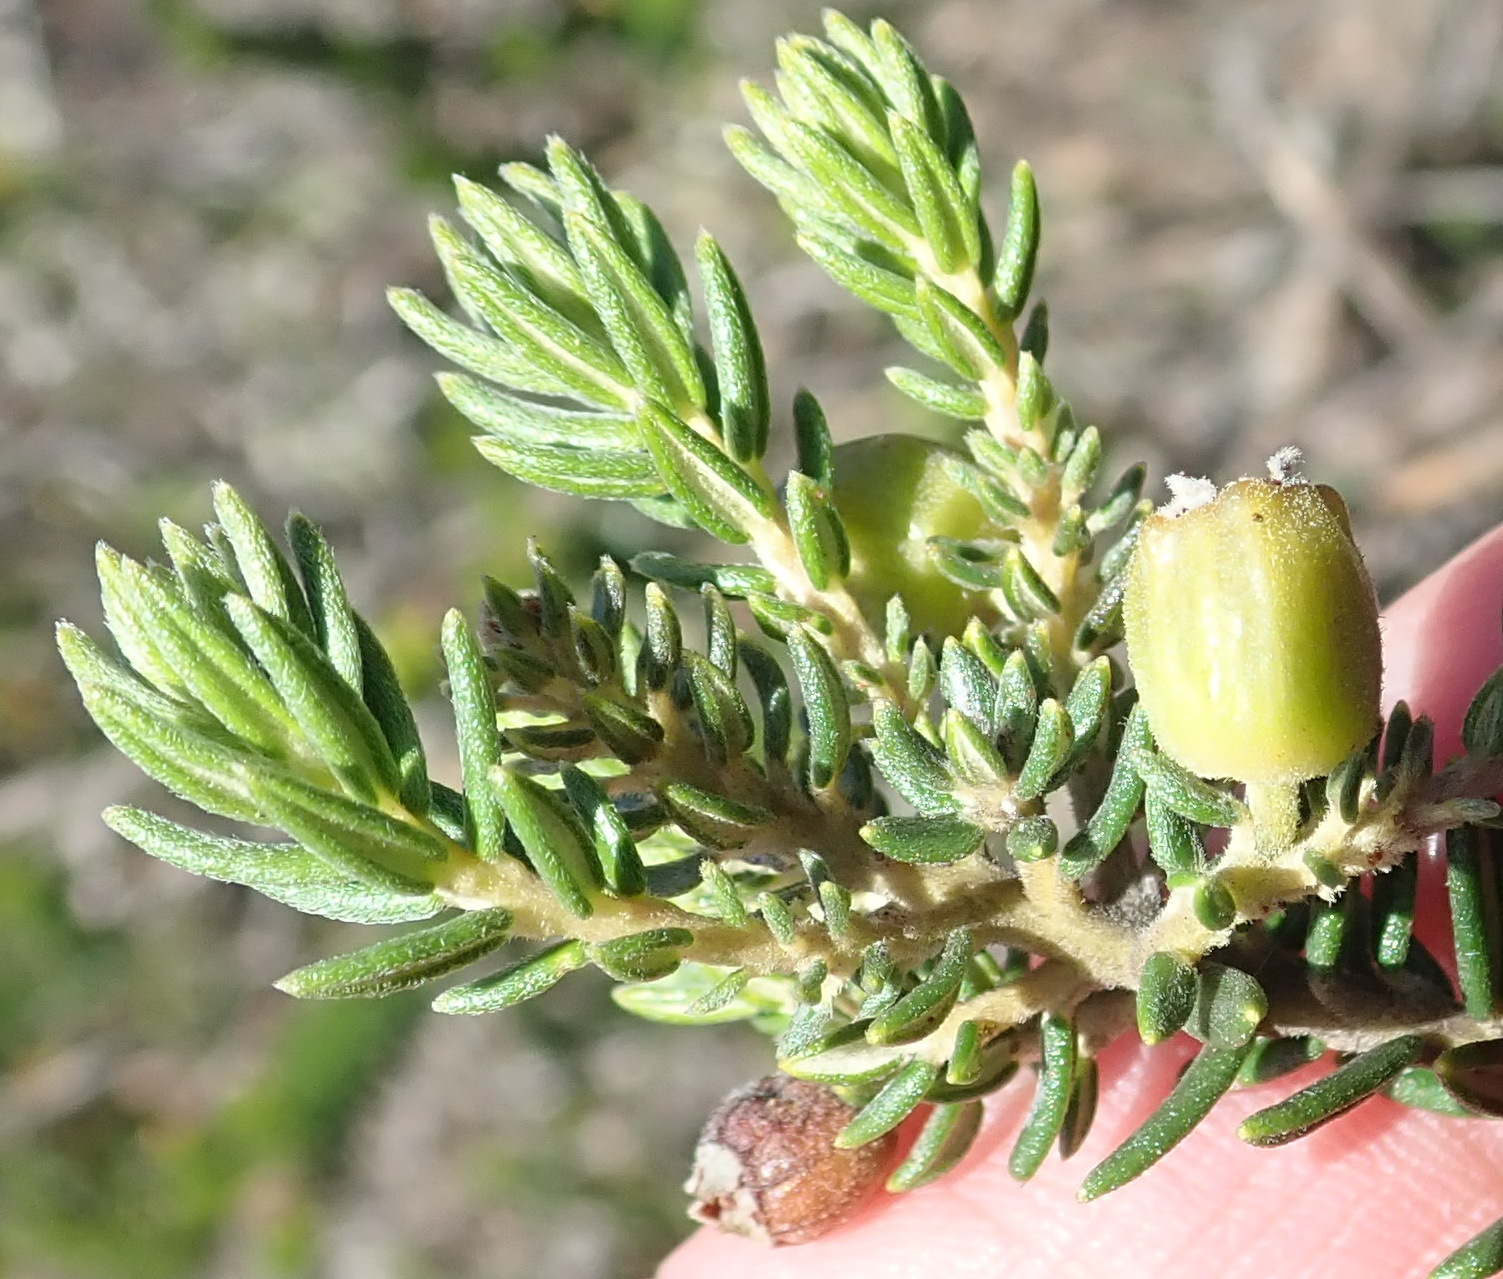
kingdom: Plantae
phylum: Tracheophyta
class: Magnoliopsida
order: Rosales
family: Rhamnaceae
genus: Phylica
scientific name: Phylica axillaris
